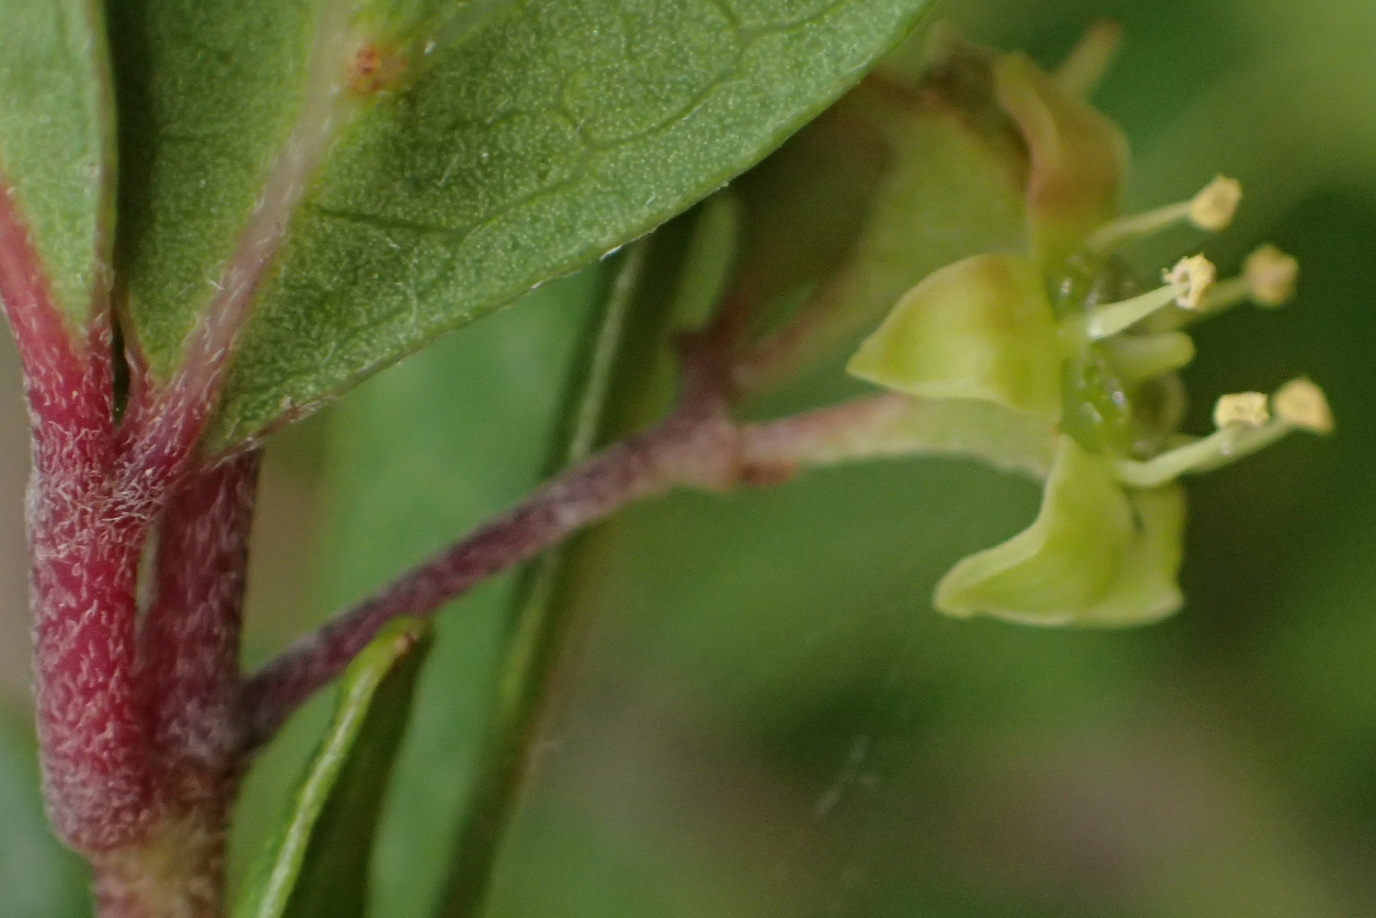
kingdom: Plantae
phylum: Tracheophyta
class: Magnoliopsida
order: Vitales
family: Vitaceae
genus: Rhoicissus
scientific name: Rhoicissus tridentata
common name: Common forest grape
